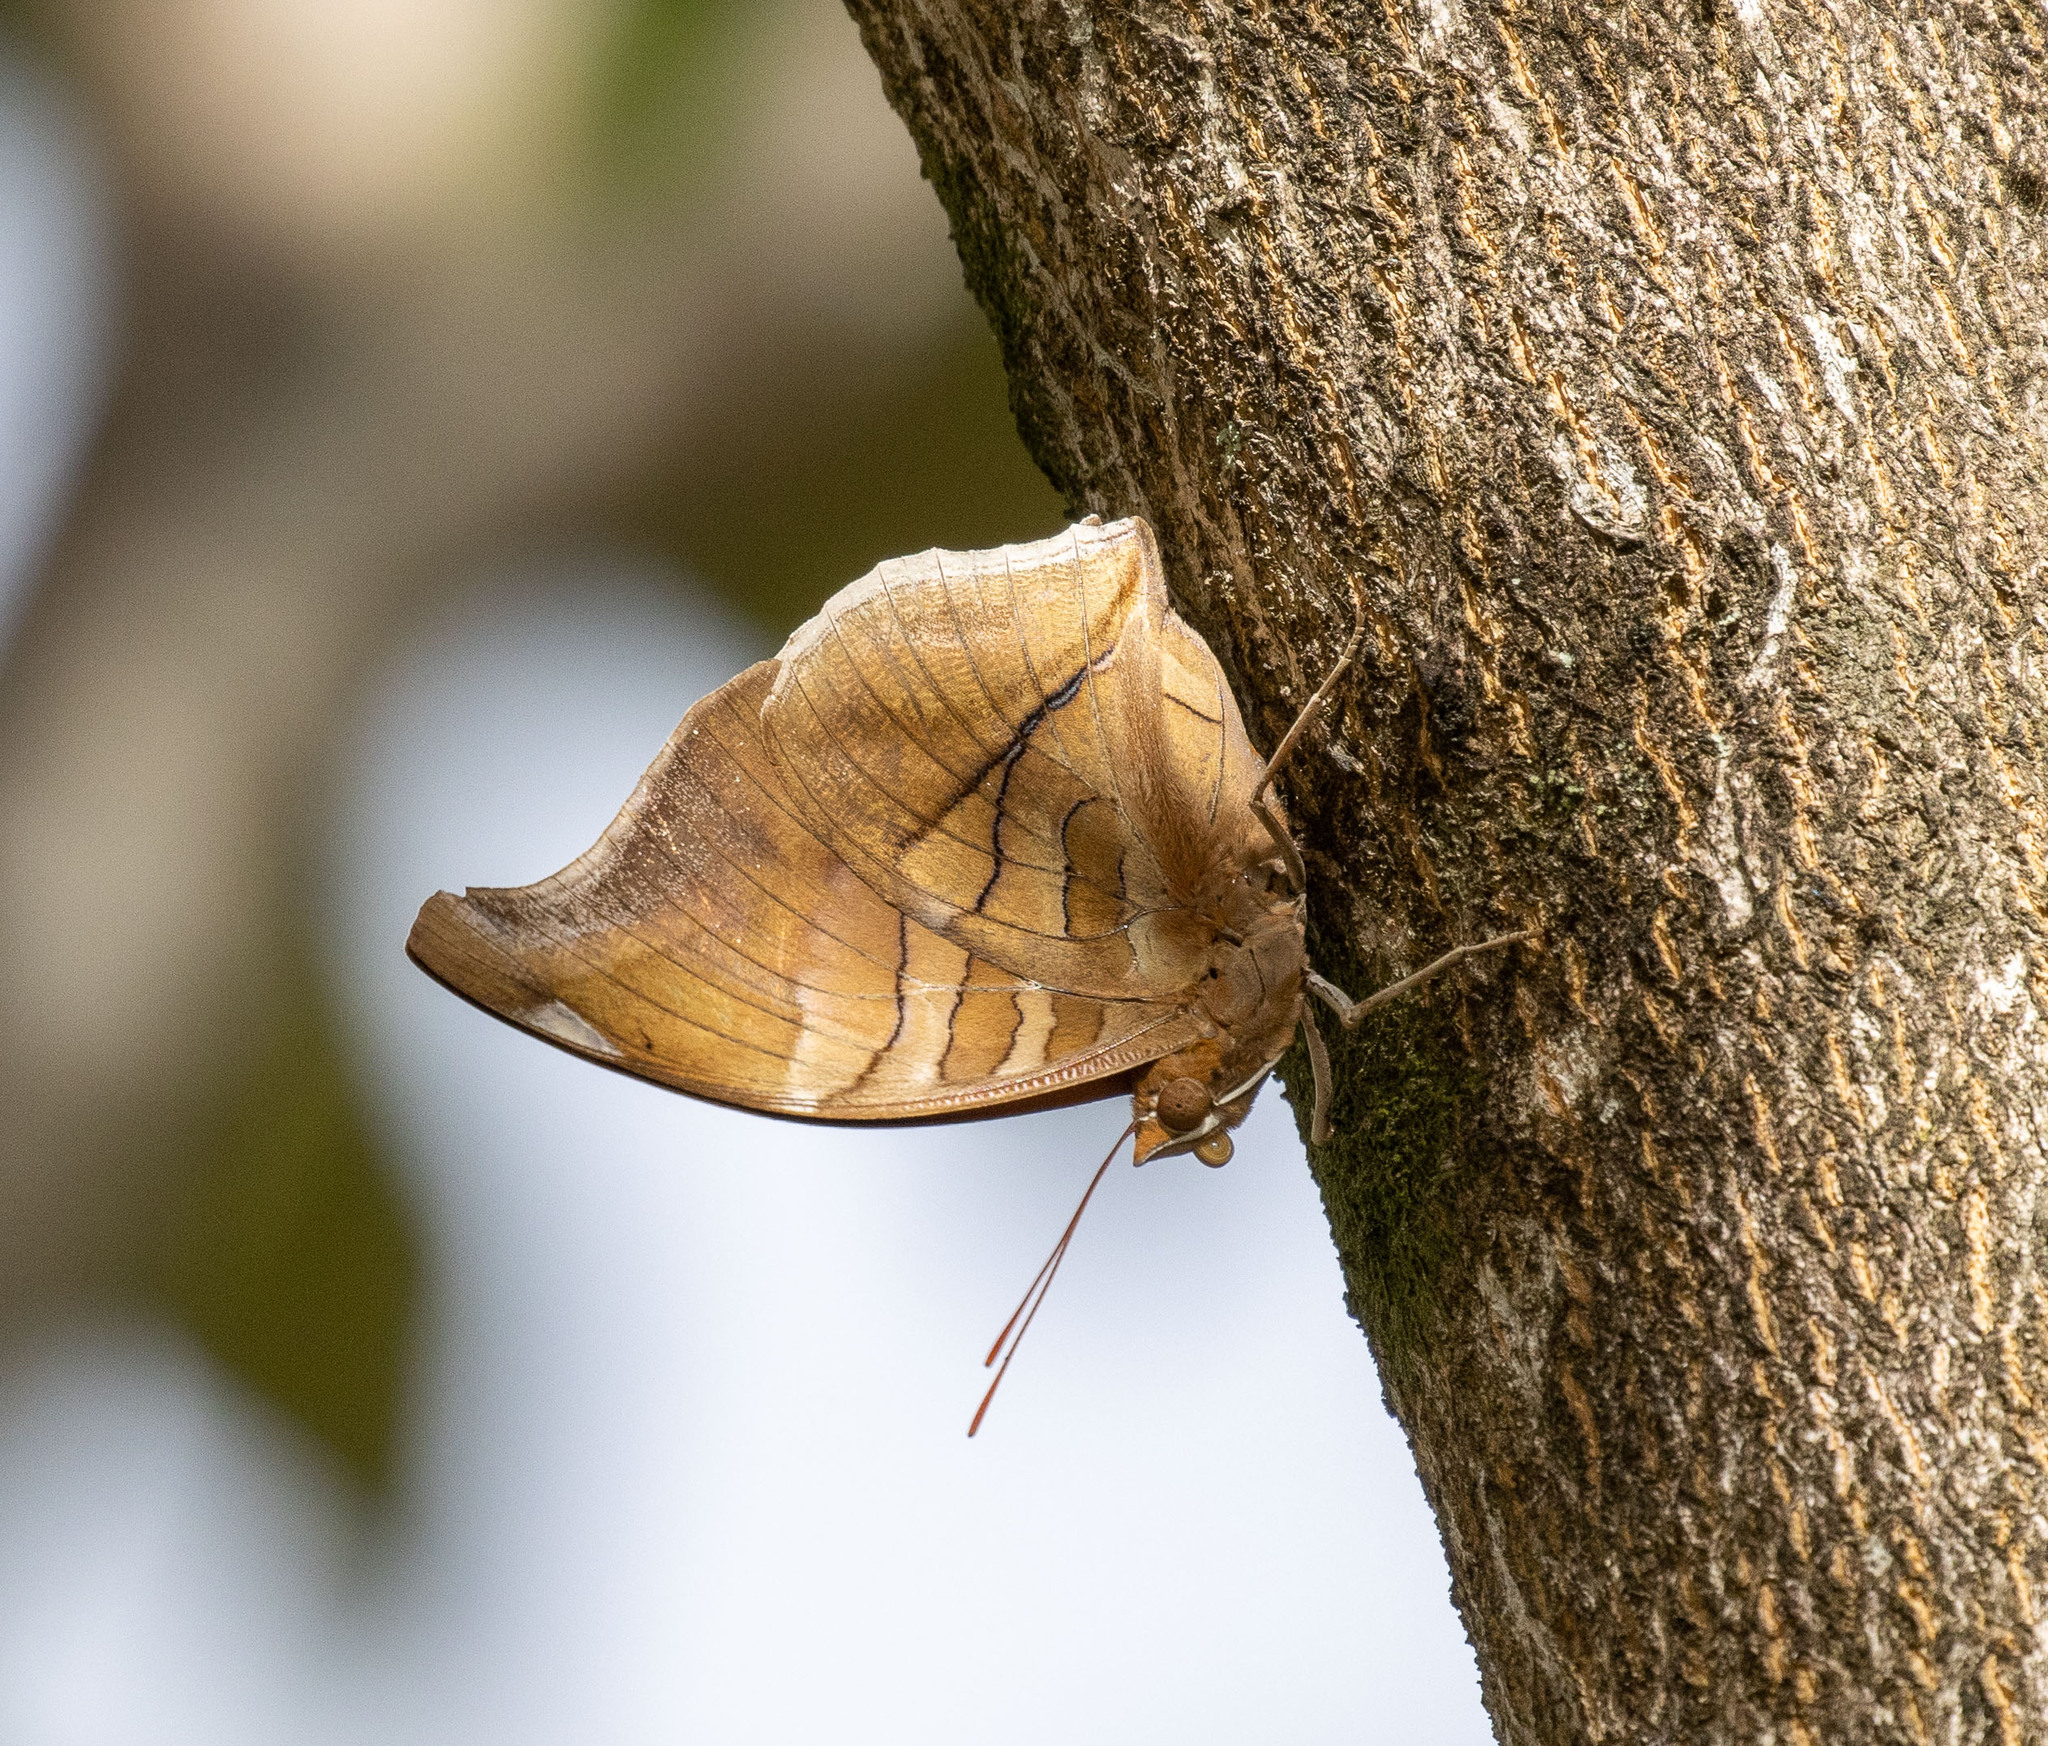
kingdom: Animalia
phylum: Arthropoda
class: Insecta
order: Lepidoptera
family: Nymphalidae
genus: Historis
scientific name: Historis odius
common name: Orion cecropian
